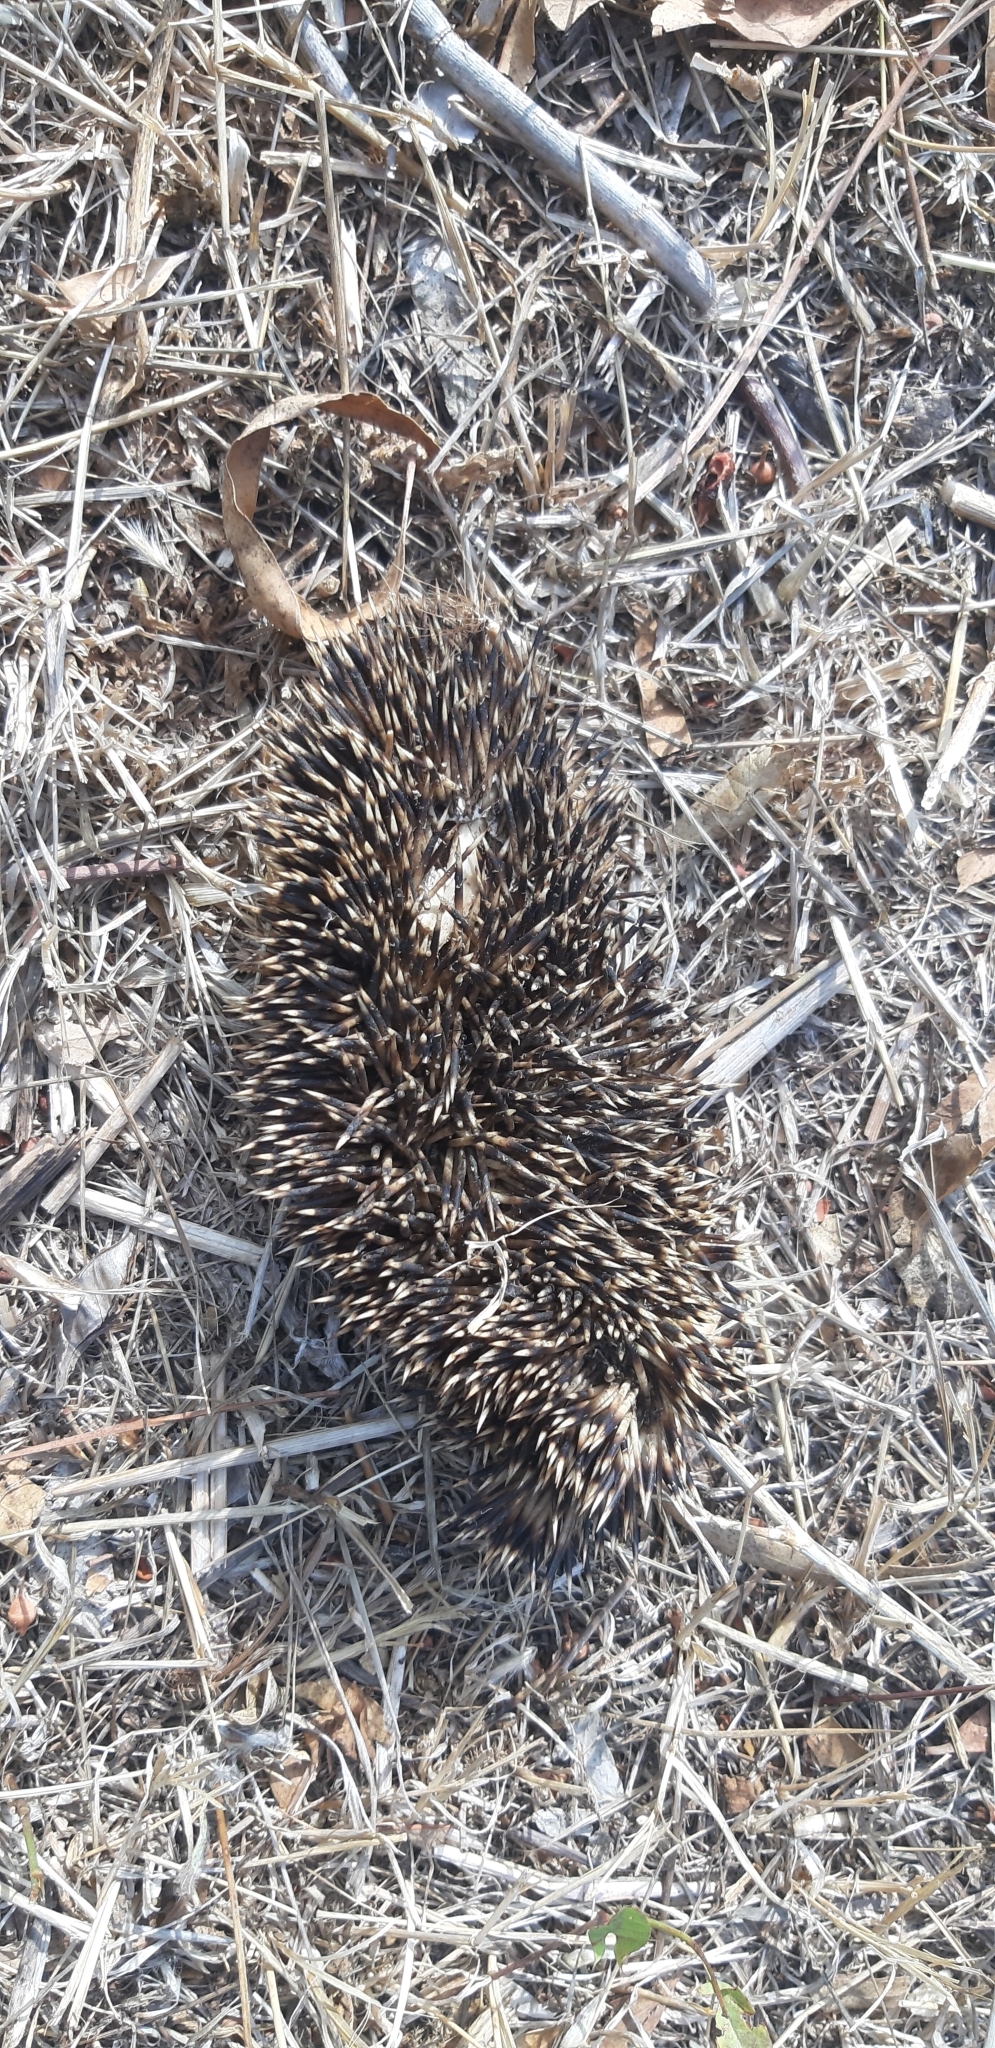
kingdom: Animalia
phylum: Chordata
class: Mammalia
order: Erinaceomorpha
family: Erinaceidae
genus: Erinaceus
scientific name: Erinaceus europaeus
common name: West european hedgehog
